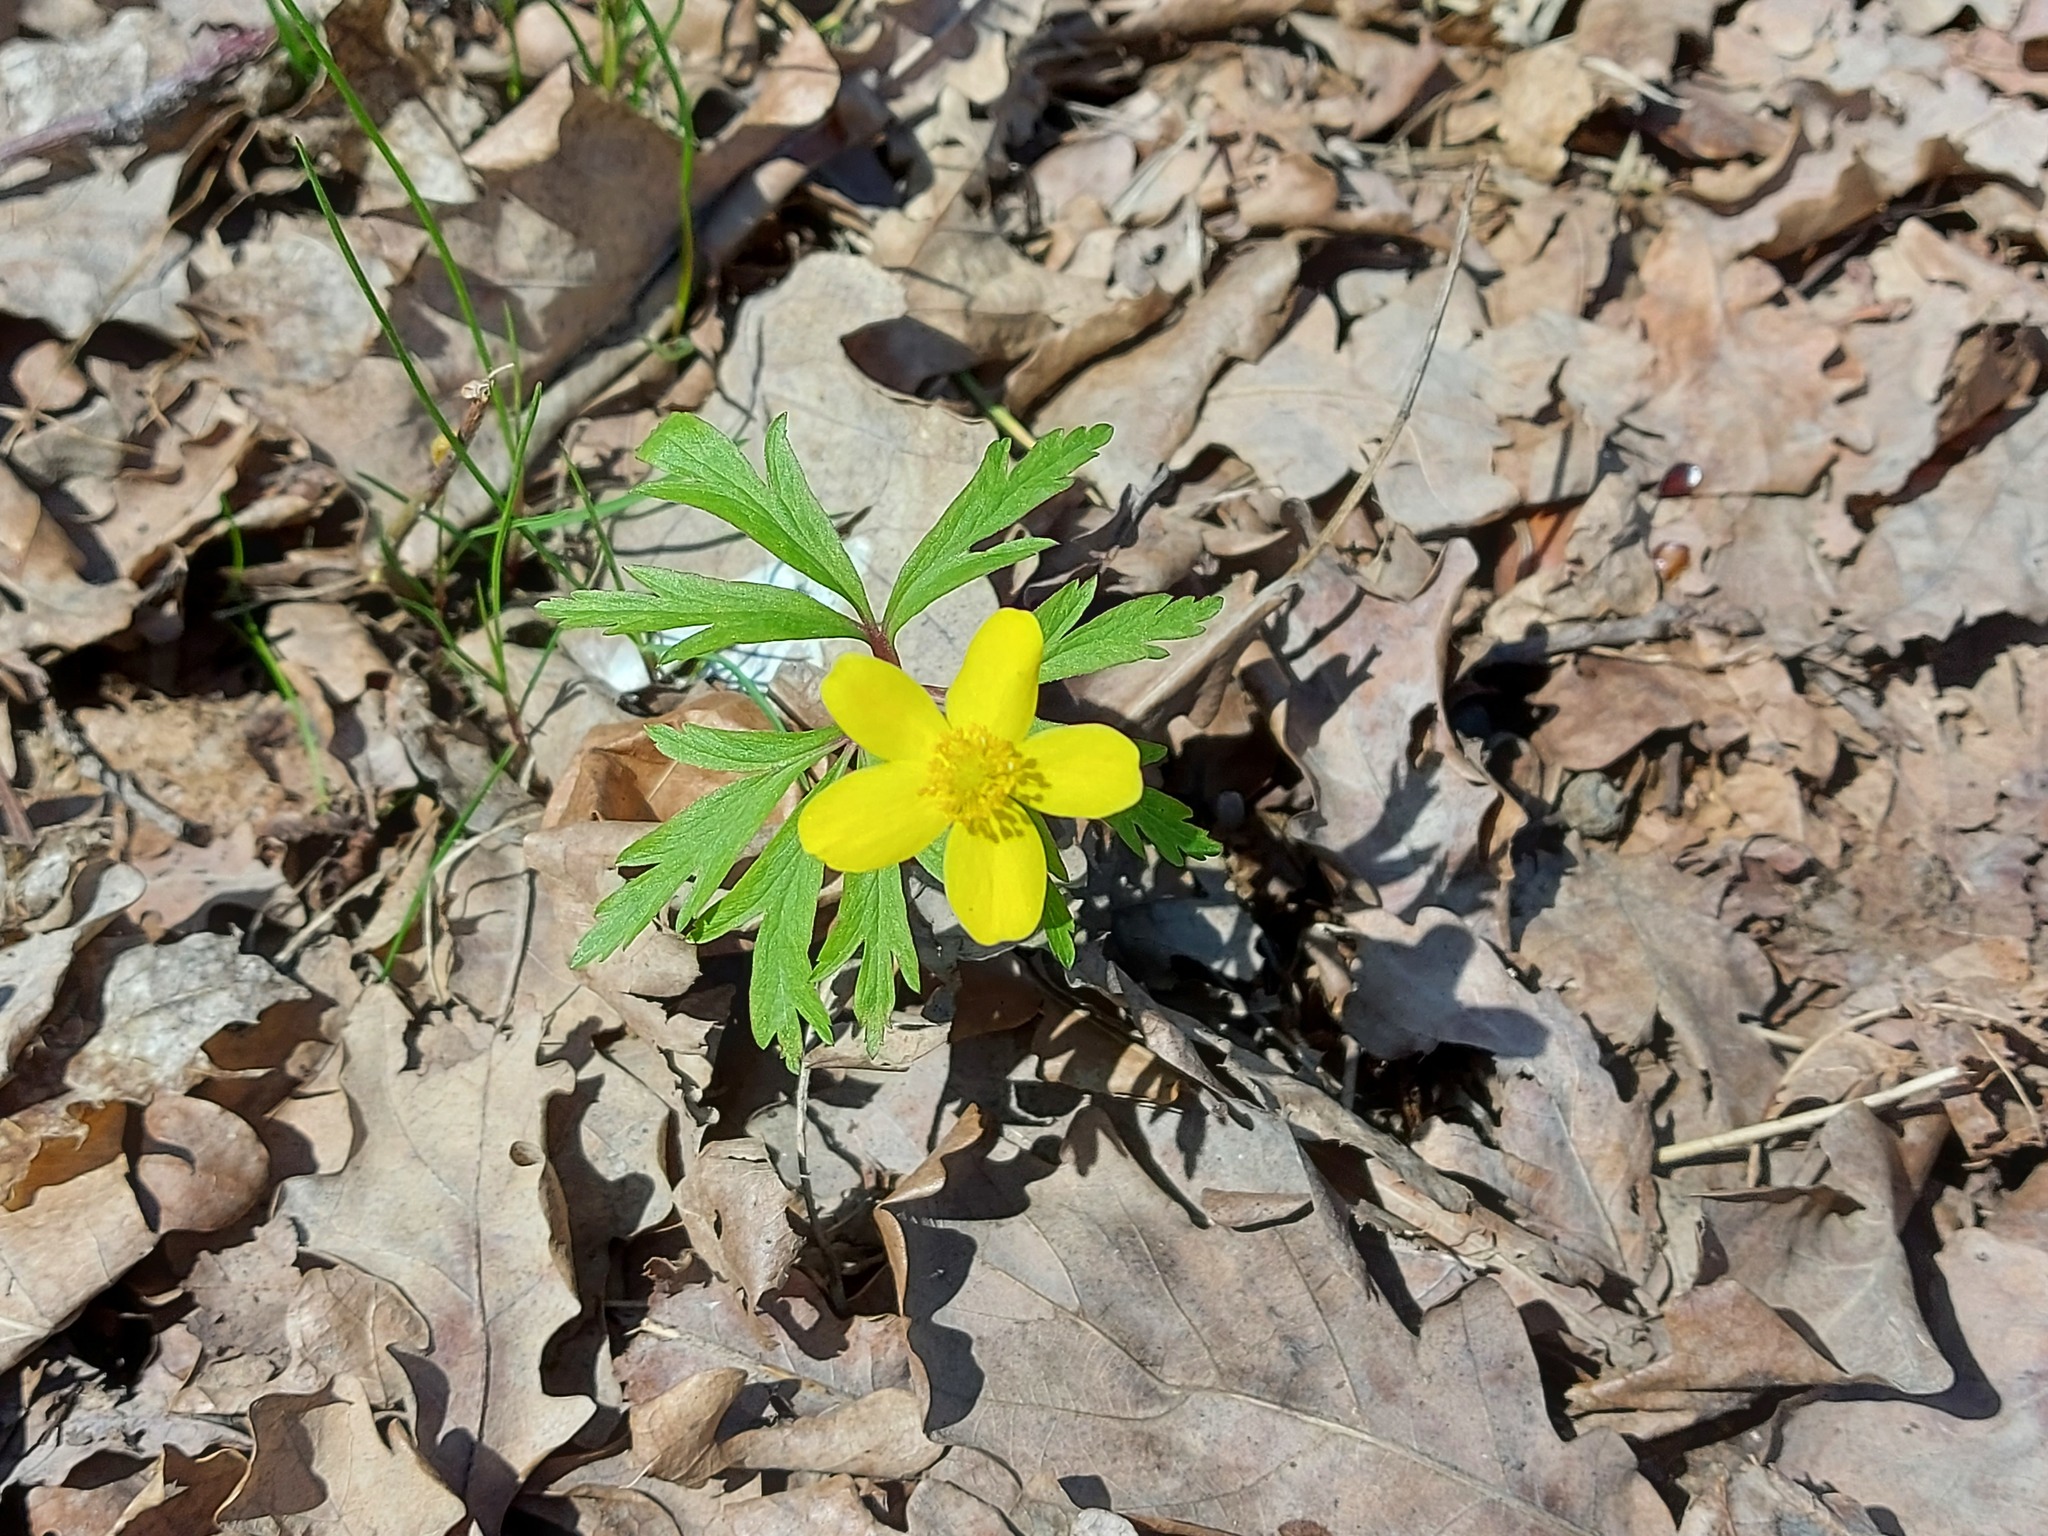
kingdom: Plantae
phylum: Tracheophyta
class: Magnoliopsida
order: Ranunculales
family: Ranunculaceae
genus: Anemone
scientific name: Anemone ranunculoides
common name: Yellow anemone
